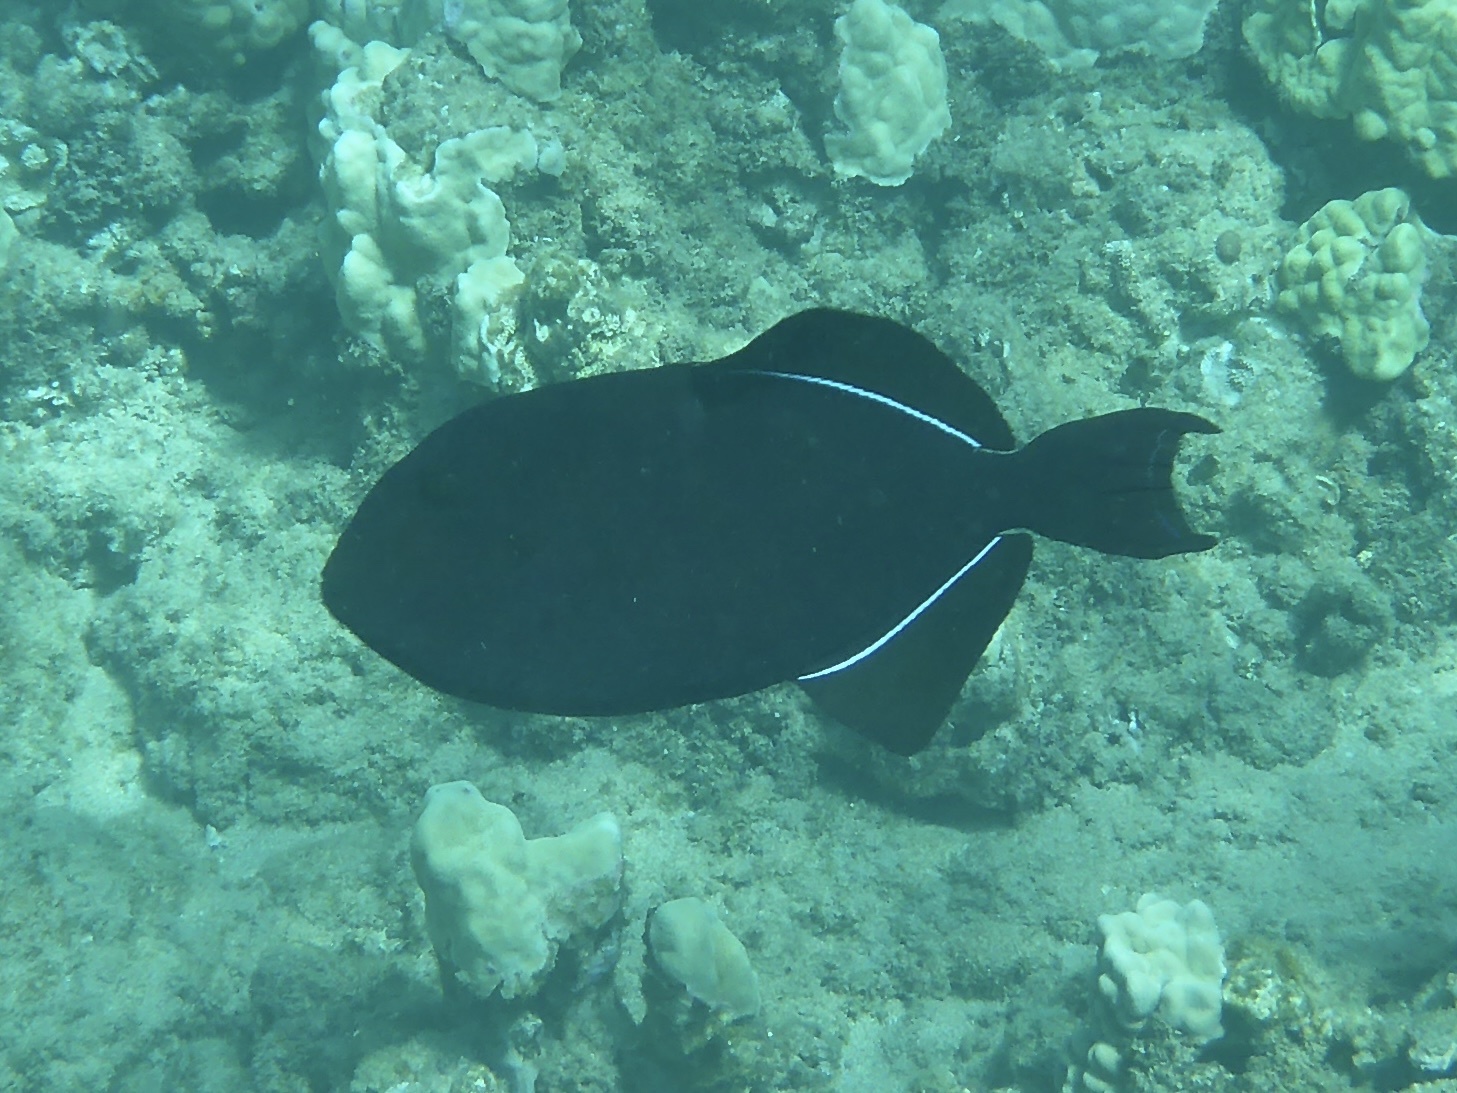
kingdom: Animalia
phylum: Chordata
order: Tetraodontiformes
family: Balistidae
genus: Melichthys
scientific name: Melichthys niger
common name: Black durgon
